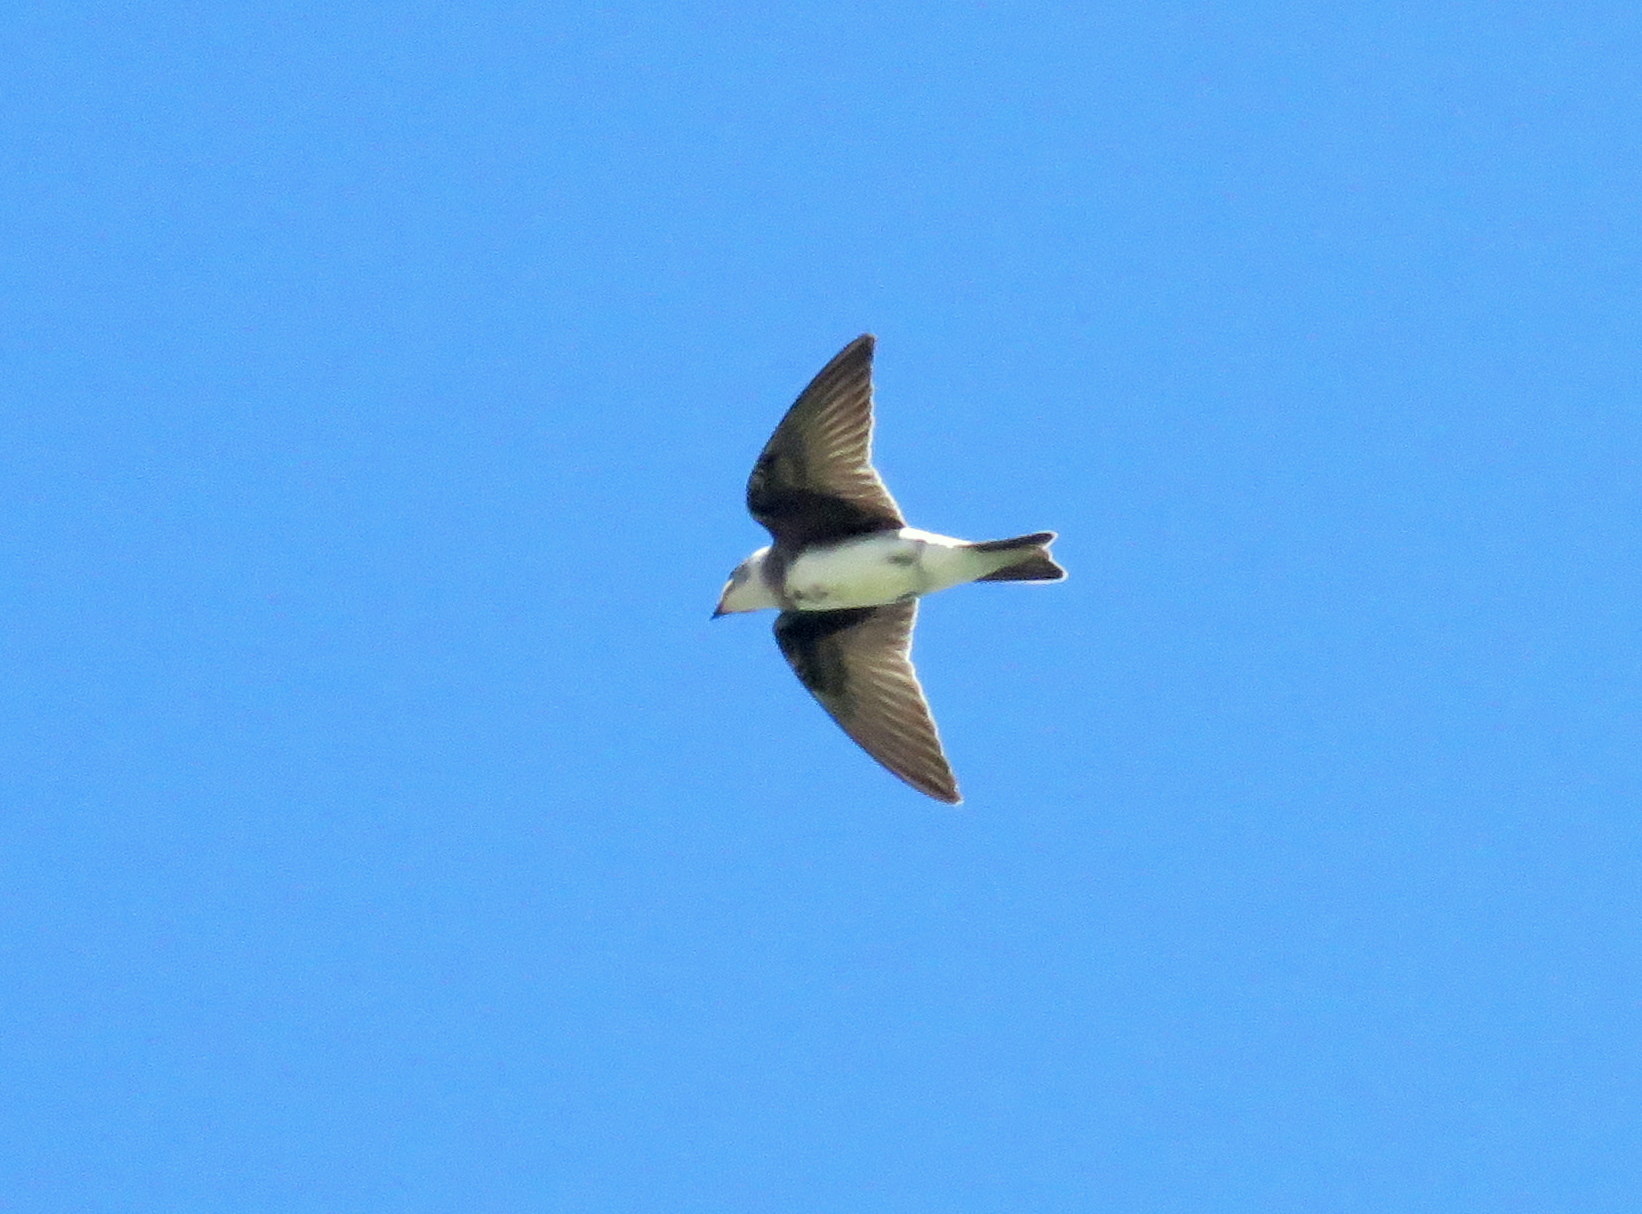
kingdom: Animalia
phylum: Chordata
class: Aves
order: Passeriformes
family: Hirundinidae
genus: Progne
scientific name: Progne tapera
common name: Brown-chested martin
